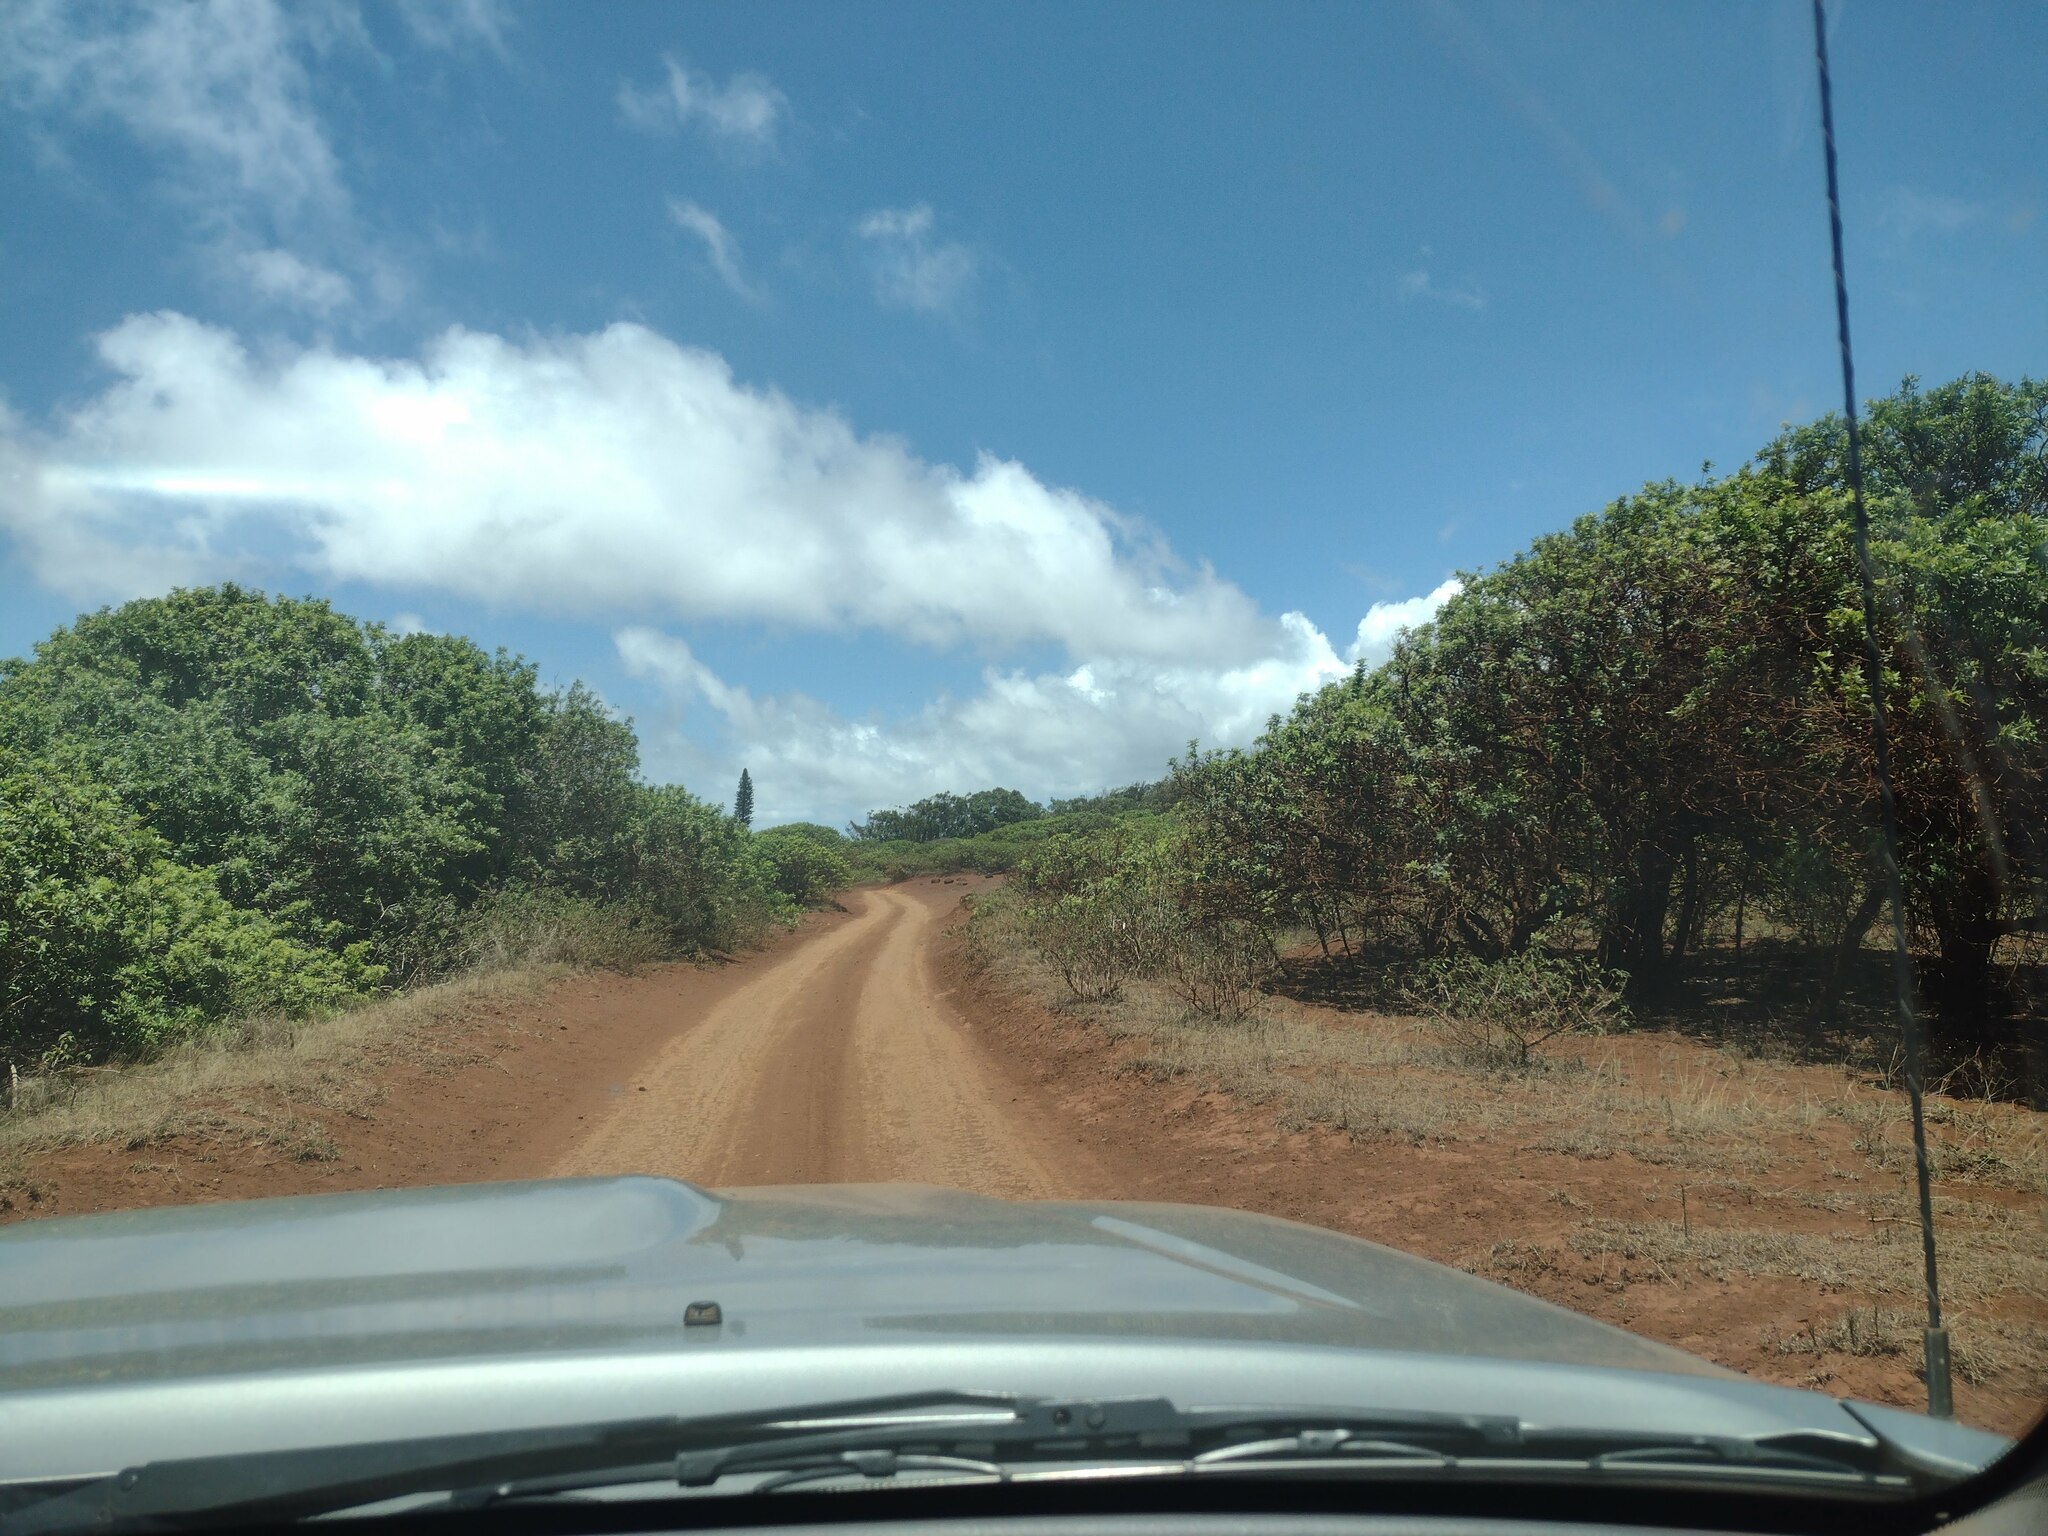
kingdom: Plantae
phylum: Tracheophyta
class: Magnoliopsida
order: Sapindales
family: Anacardiaceae
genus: Schinus
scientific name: Schinus terebinthifolia
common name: Brazilian peppertree
